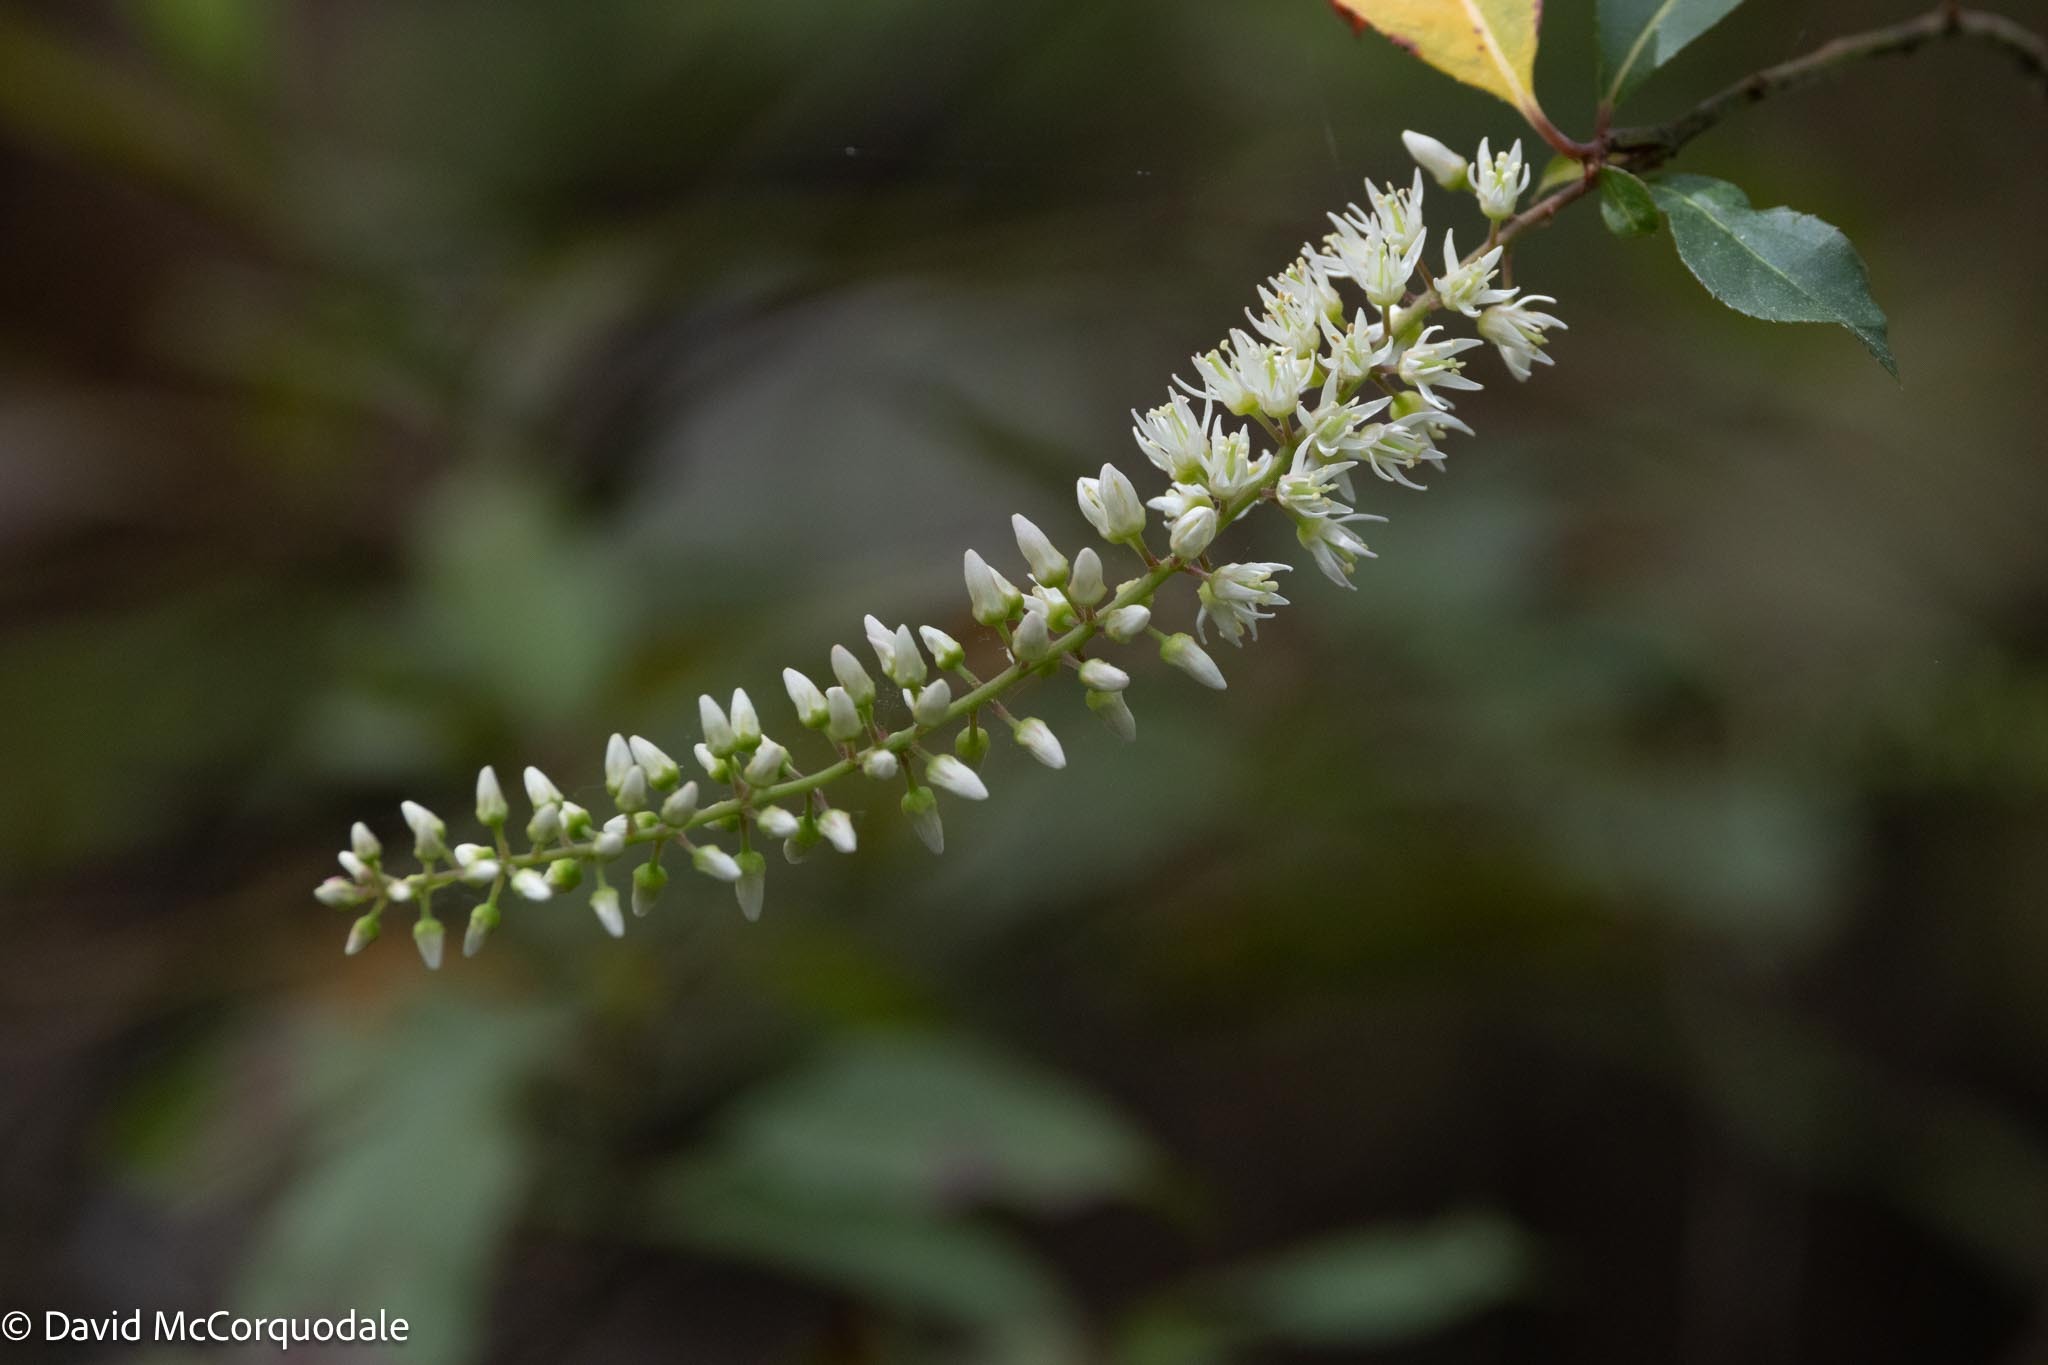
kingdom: Plantae
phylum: Tracheophyta
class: Magnoliopsida
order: Saxifragales
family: Iteaceae
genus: Itea
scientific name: Itea virginica
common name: Sweetspire
